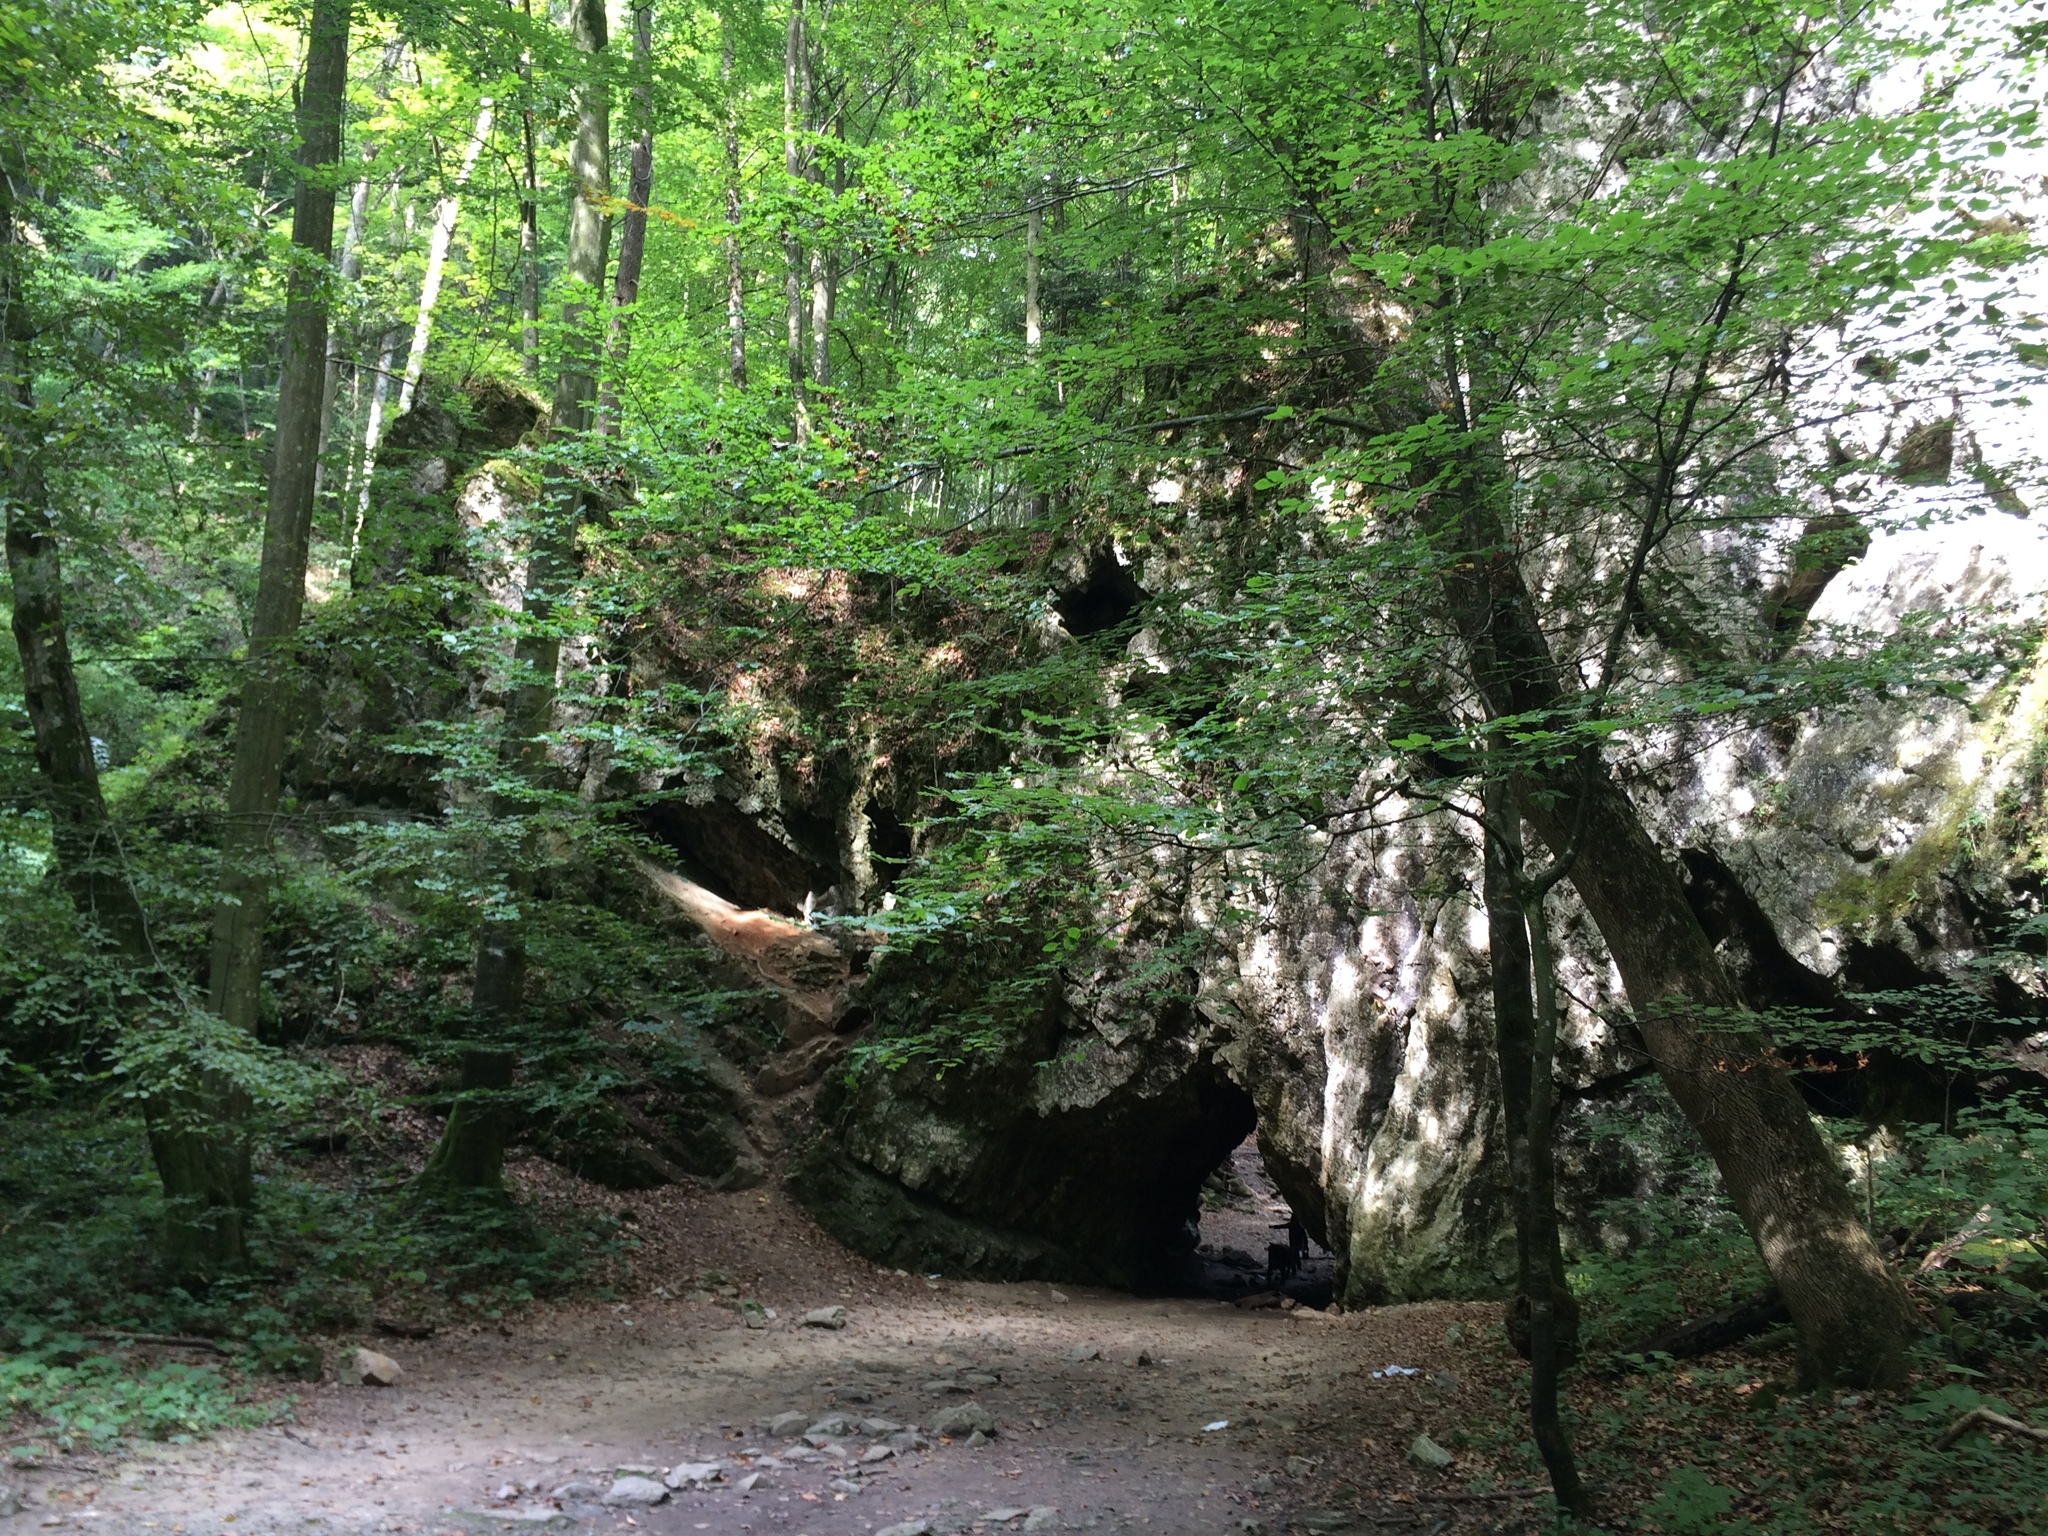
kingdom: Plantae
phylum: Tracheophyta
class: Magnoliopsida
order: Fagales
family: Fagaceae
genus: Fagus
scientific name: Fagus sylvatica
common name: Beech
